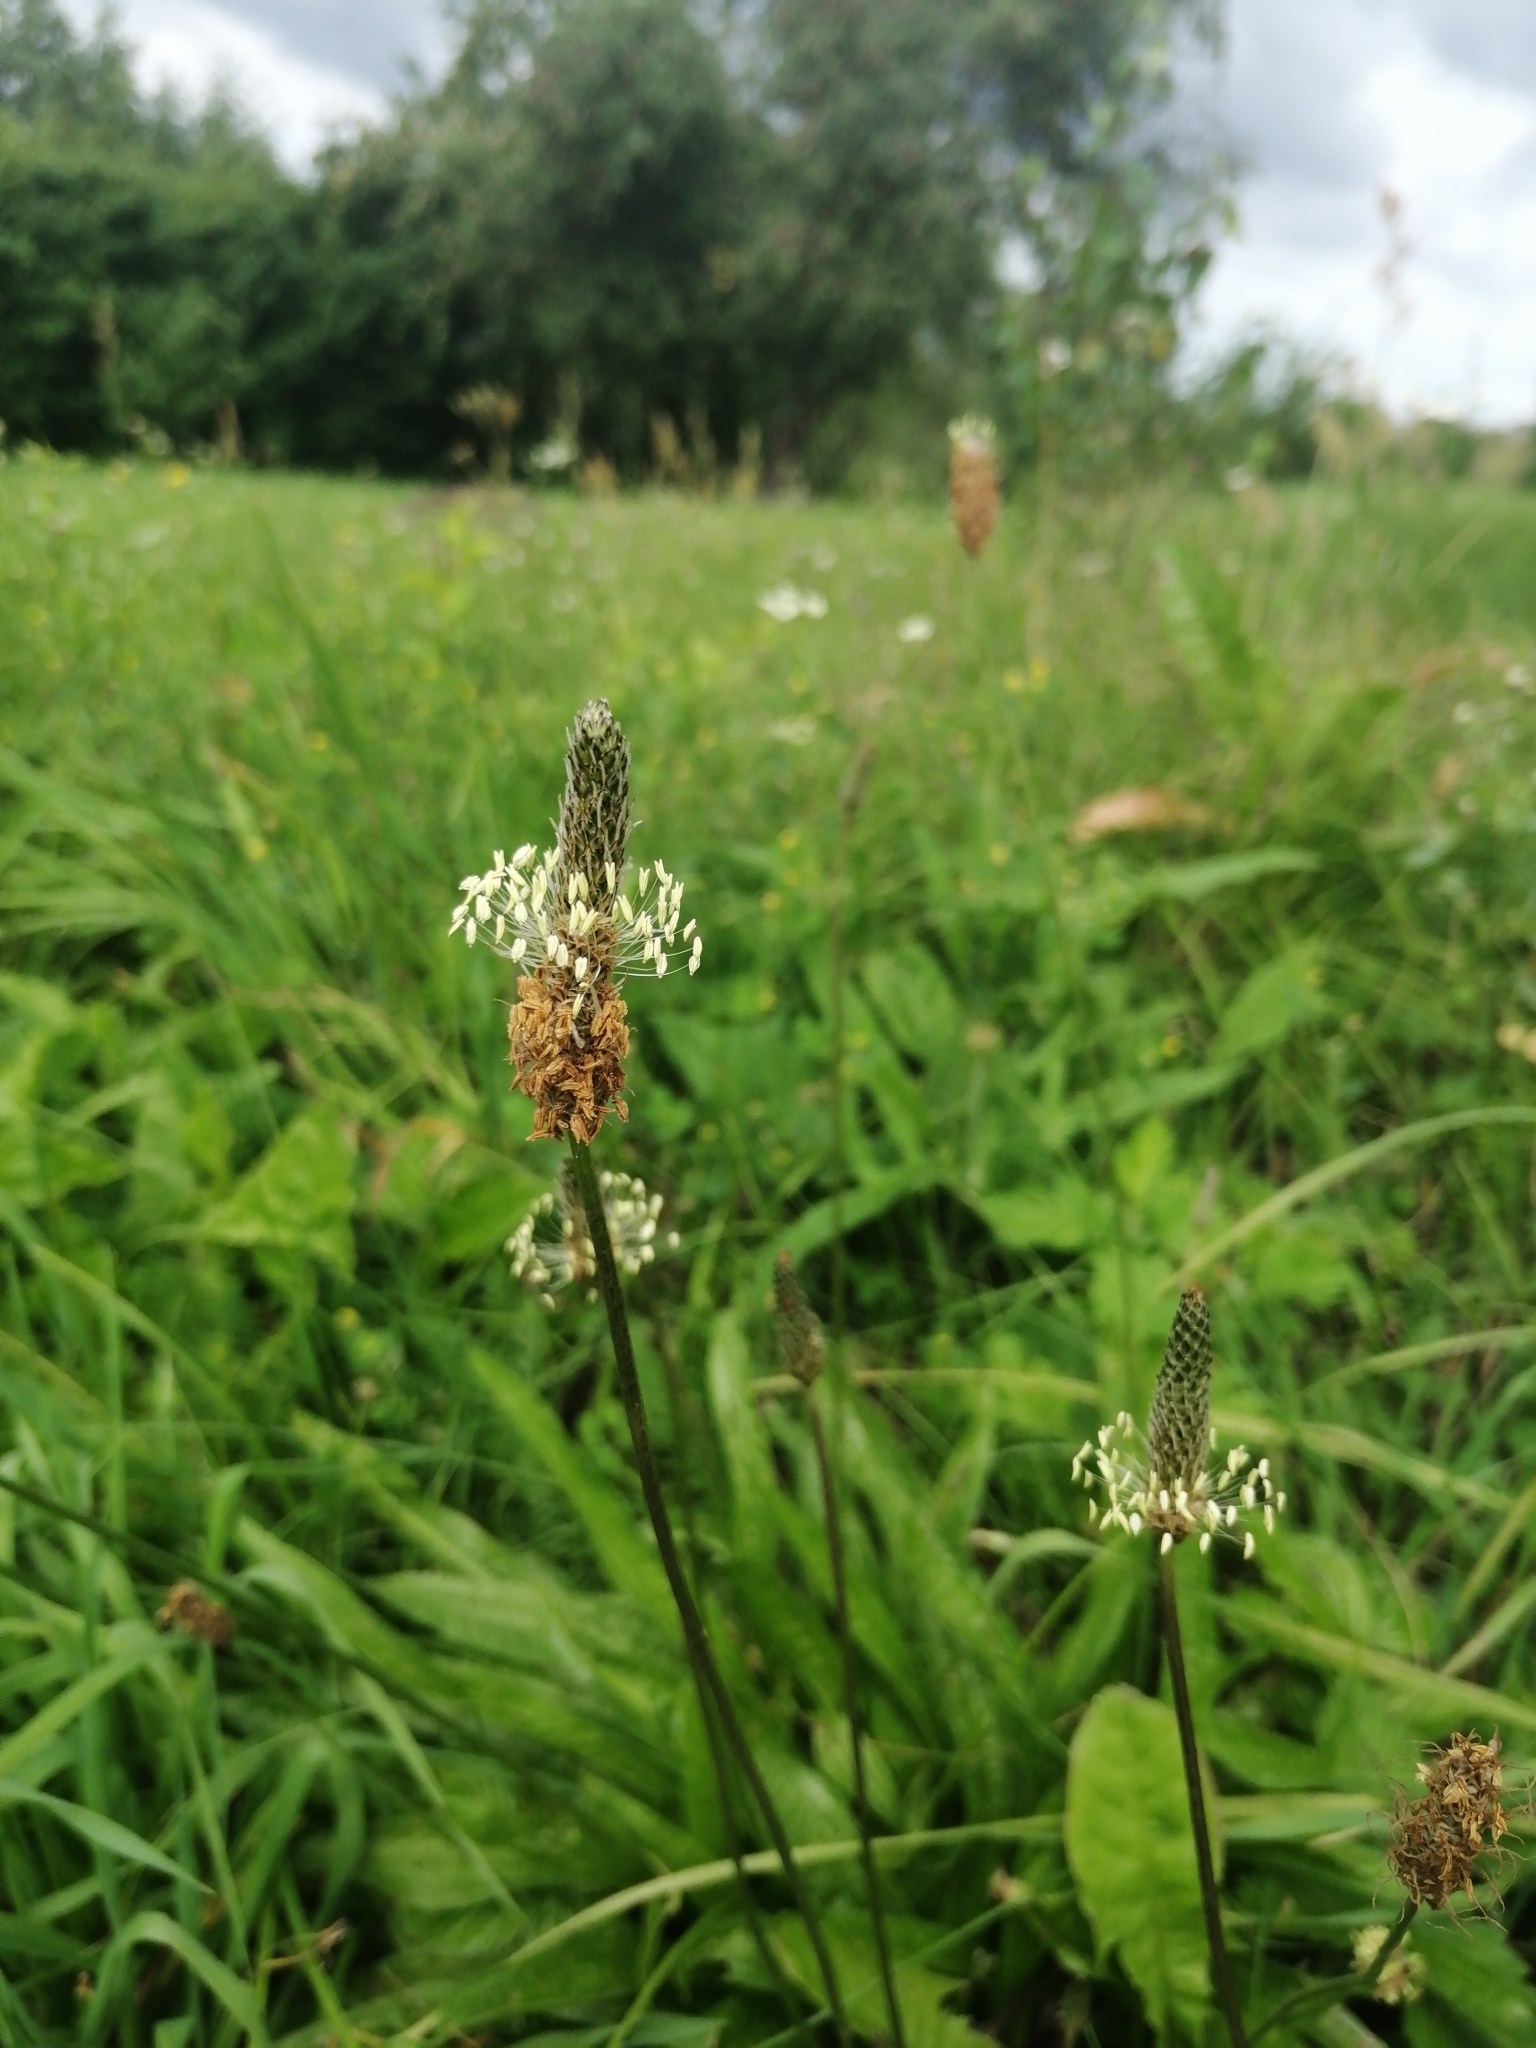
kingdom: Plantae
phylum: Tracheophyta
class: Magnoliopsida
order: Lamiales
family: Plantaginaceae
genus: Plantago
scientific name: Plantago lanceolata
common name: Ribwort plantain
